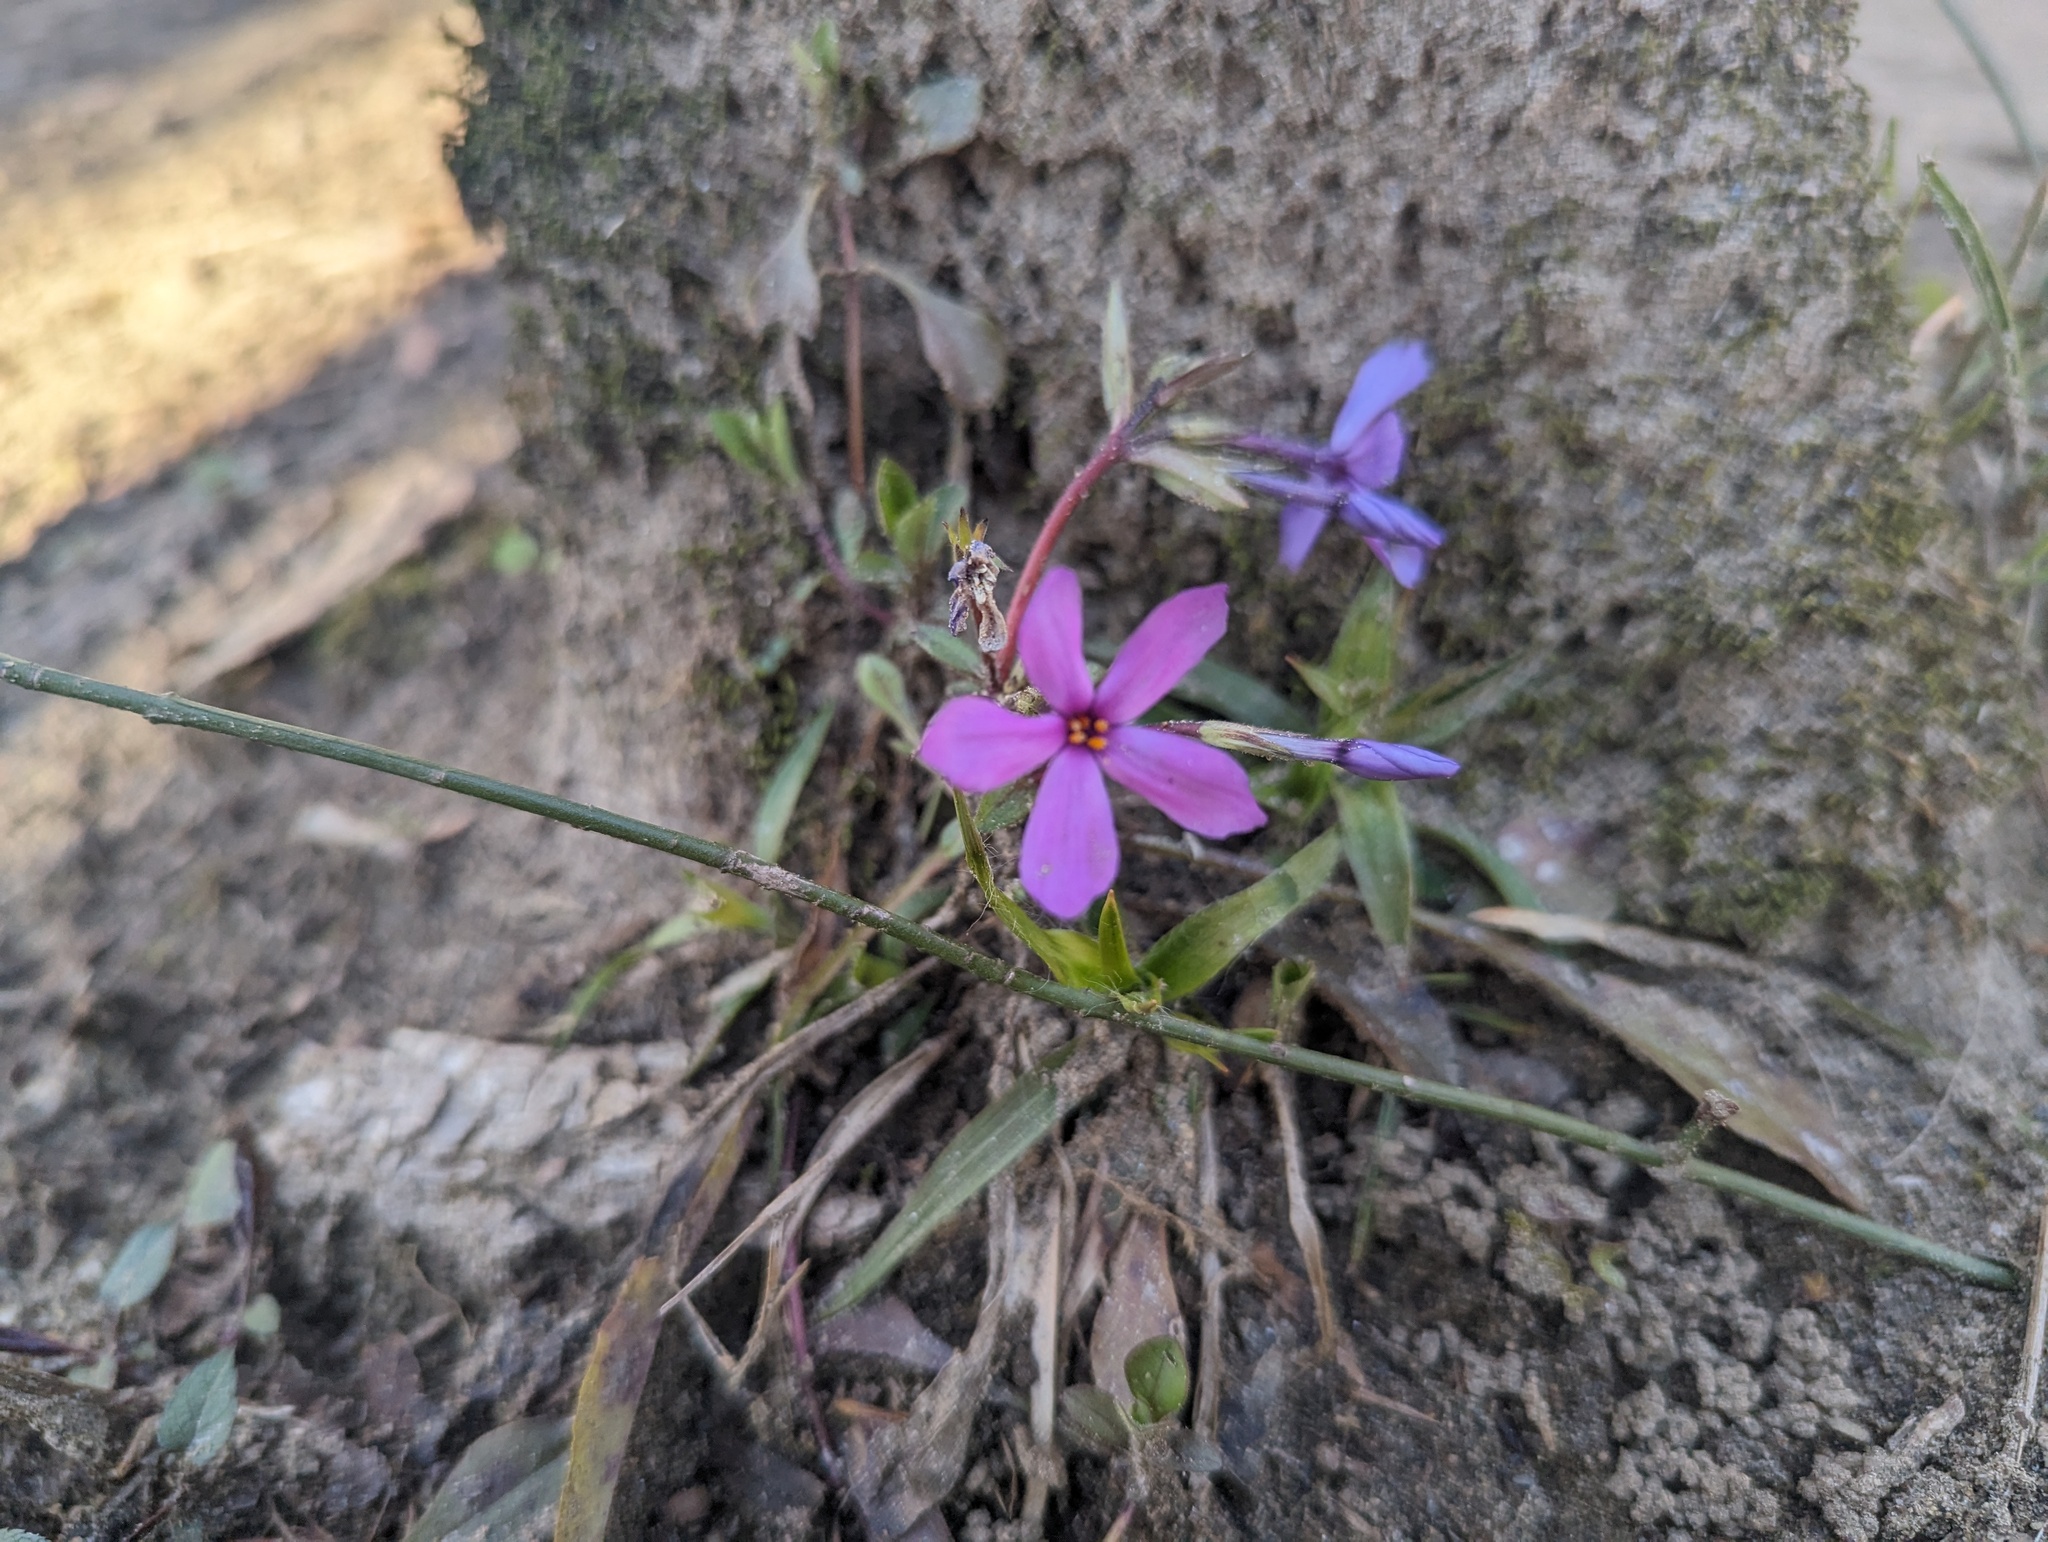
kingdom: Plantae
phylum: Tracheophyta
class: Magnoliopsida
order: Ericales
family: Polemoniaceae
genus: Phlox
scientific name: Phlox stolonifera
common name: Creeping phlox
